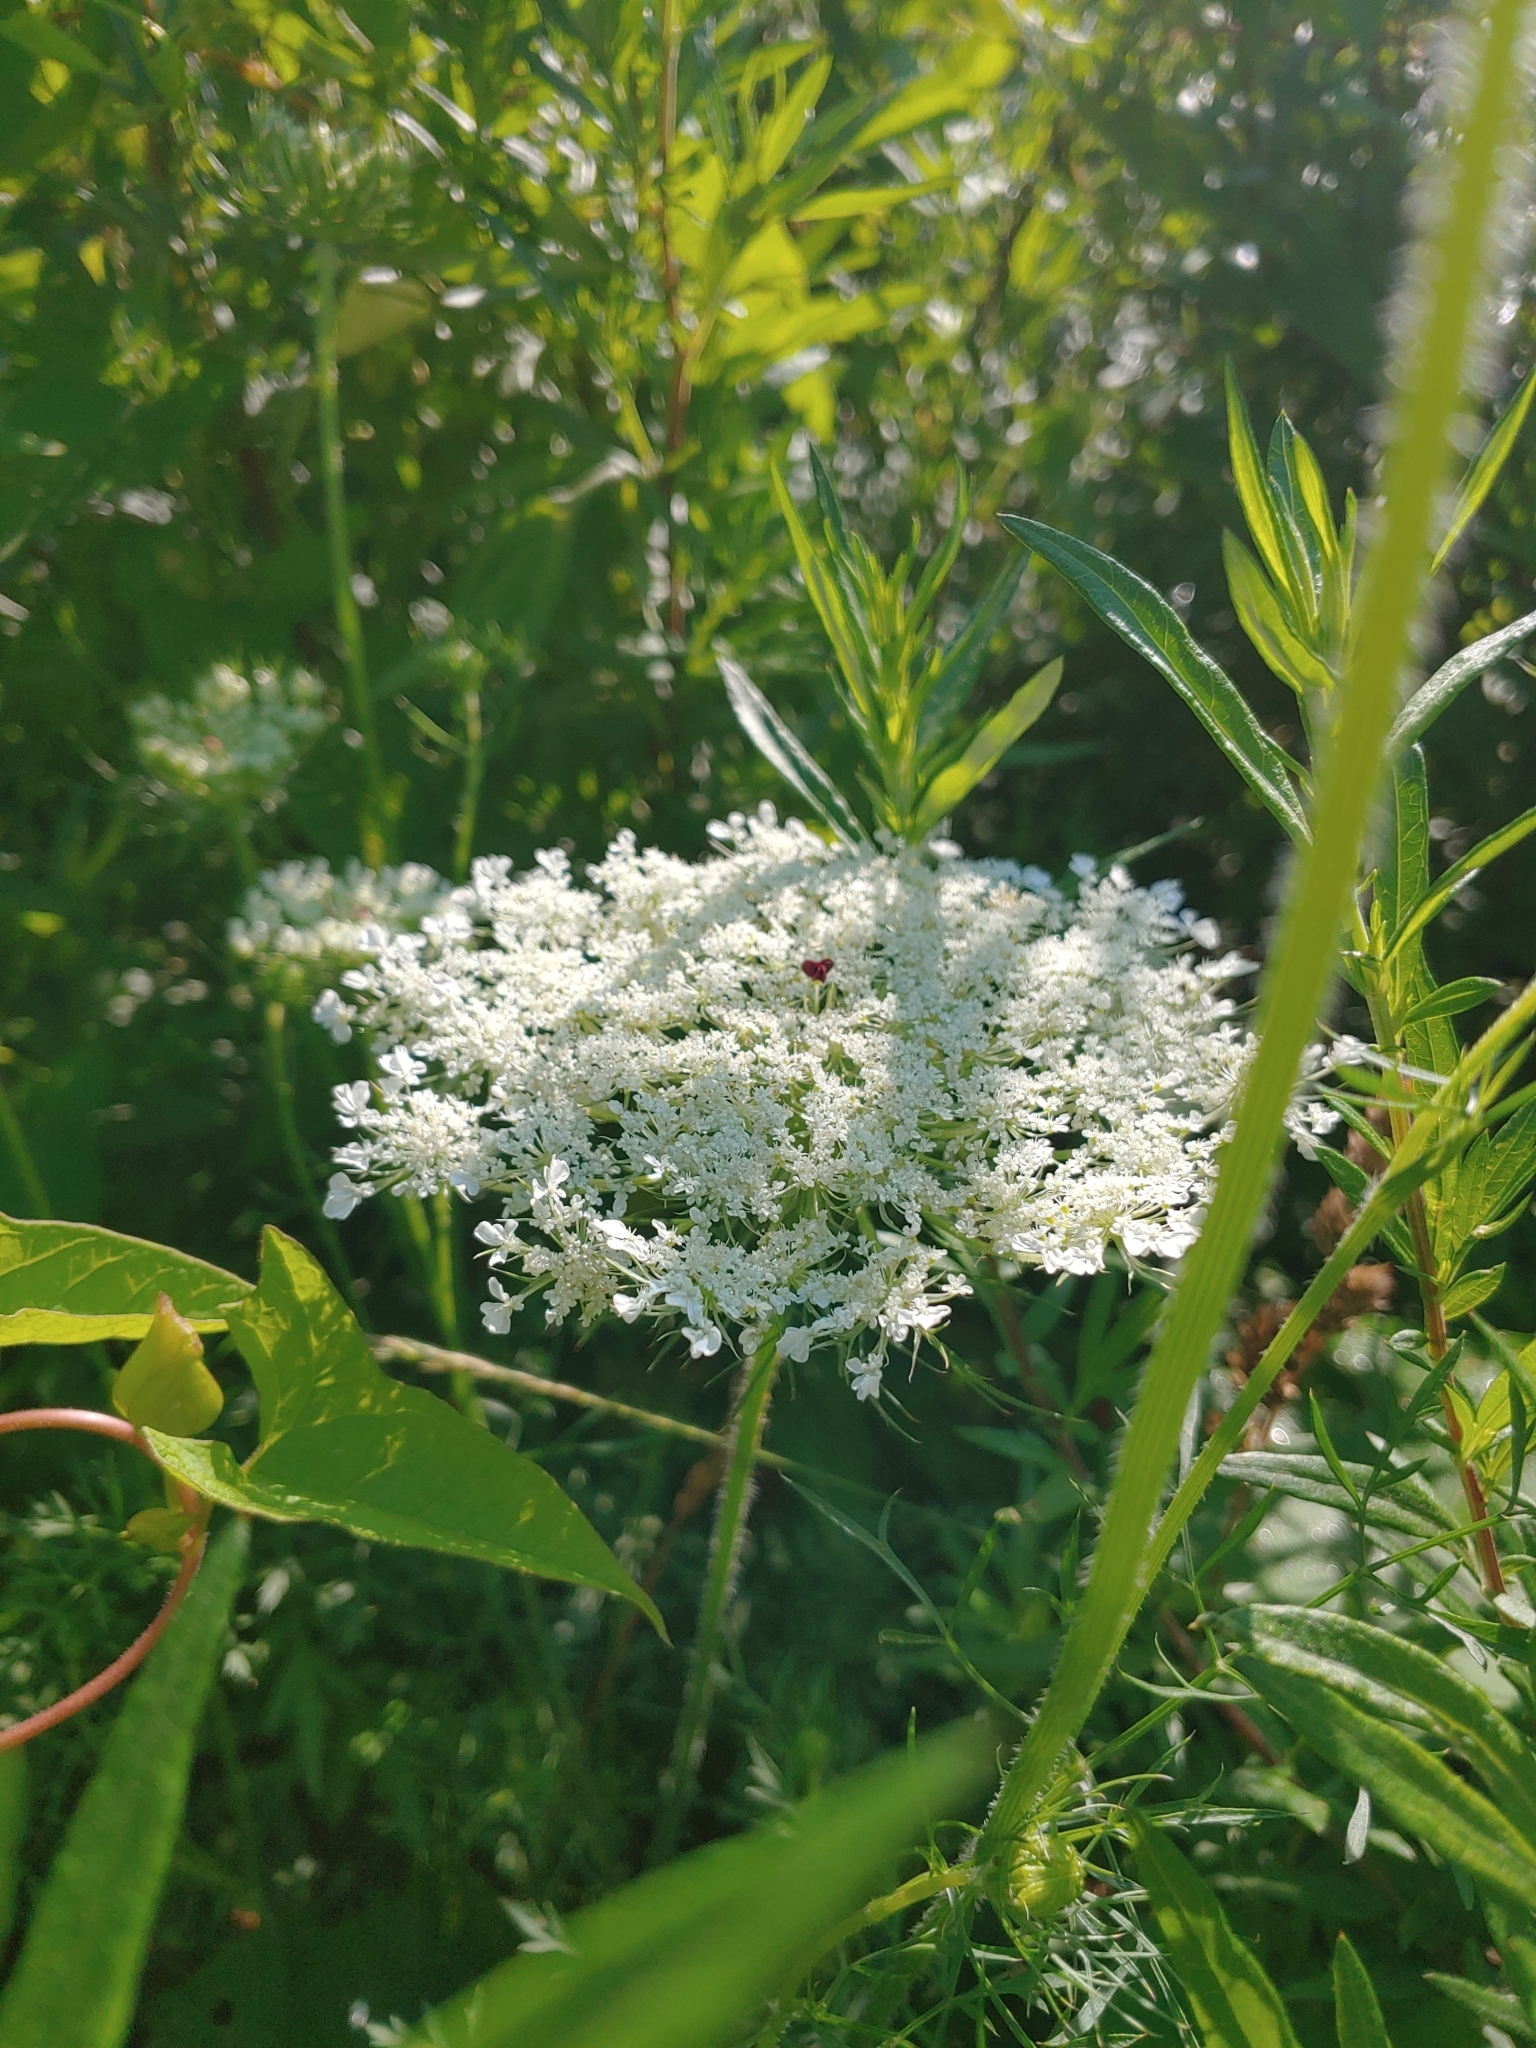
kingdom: Plantae
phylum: Tracheophyta
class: Magnoliopsida
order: Apiales
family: Apiaceae
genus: Daucus
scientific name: Daucus carota
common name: Wild carrot
